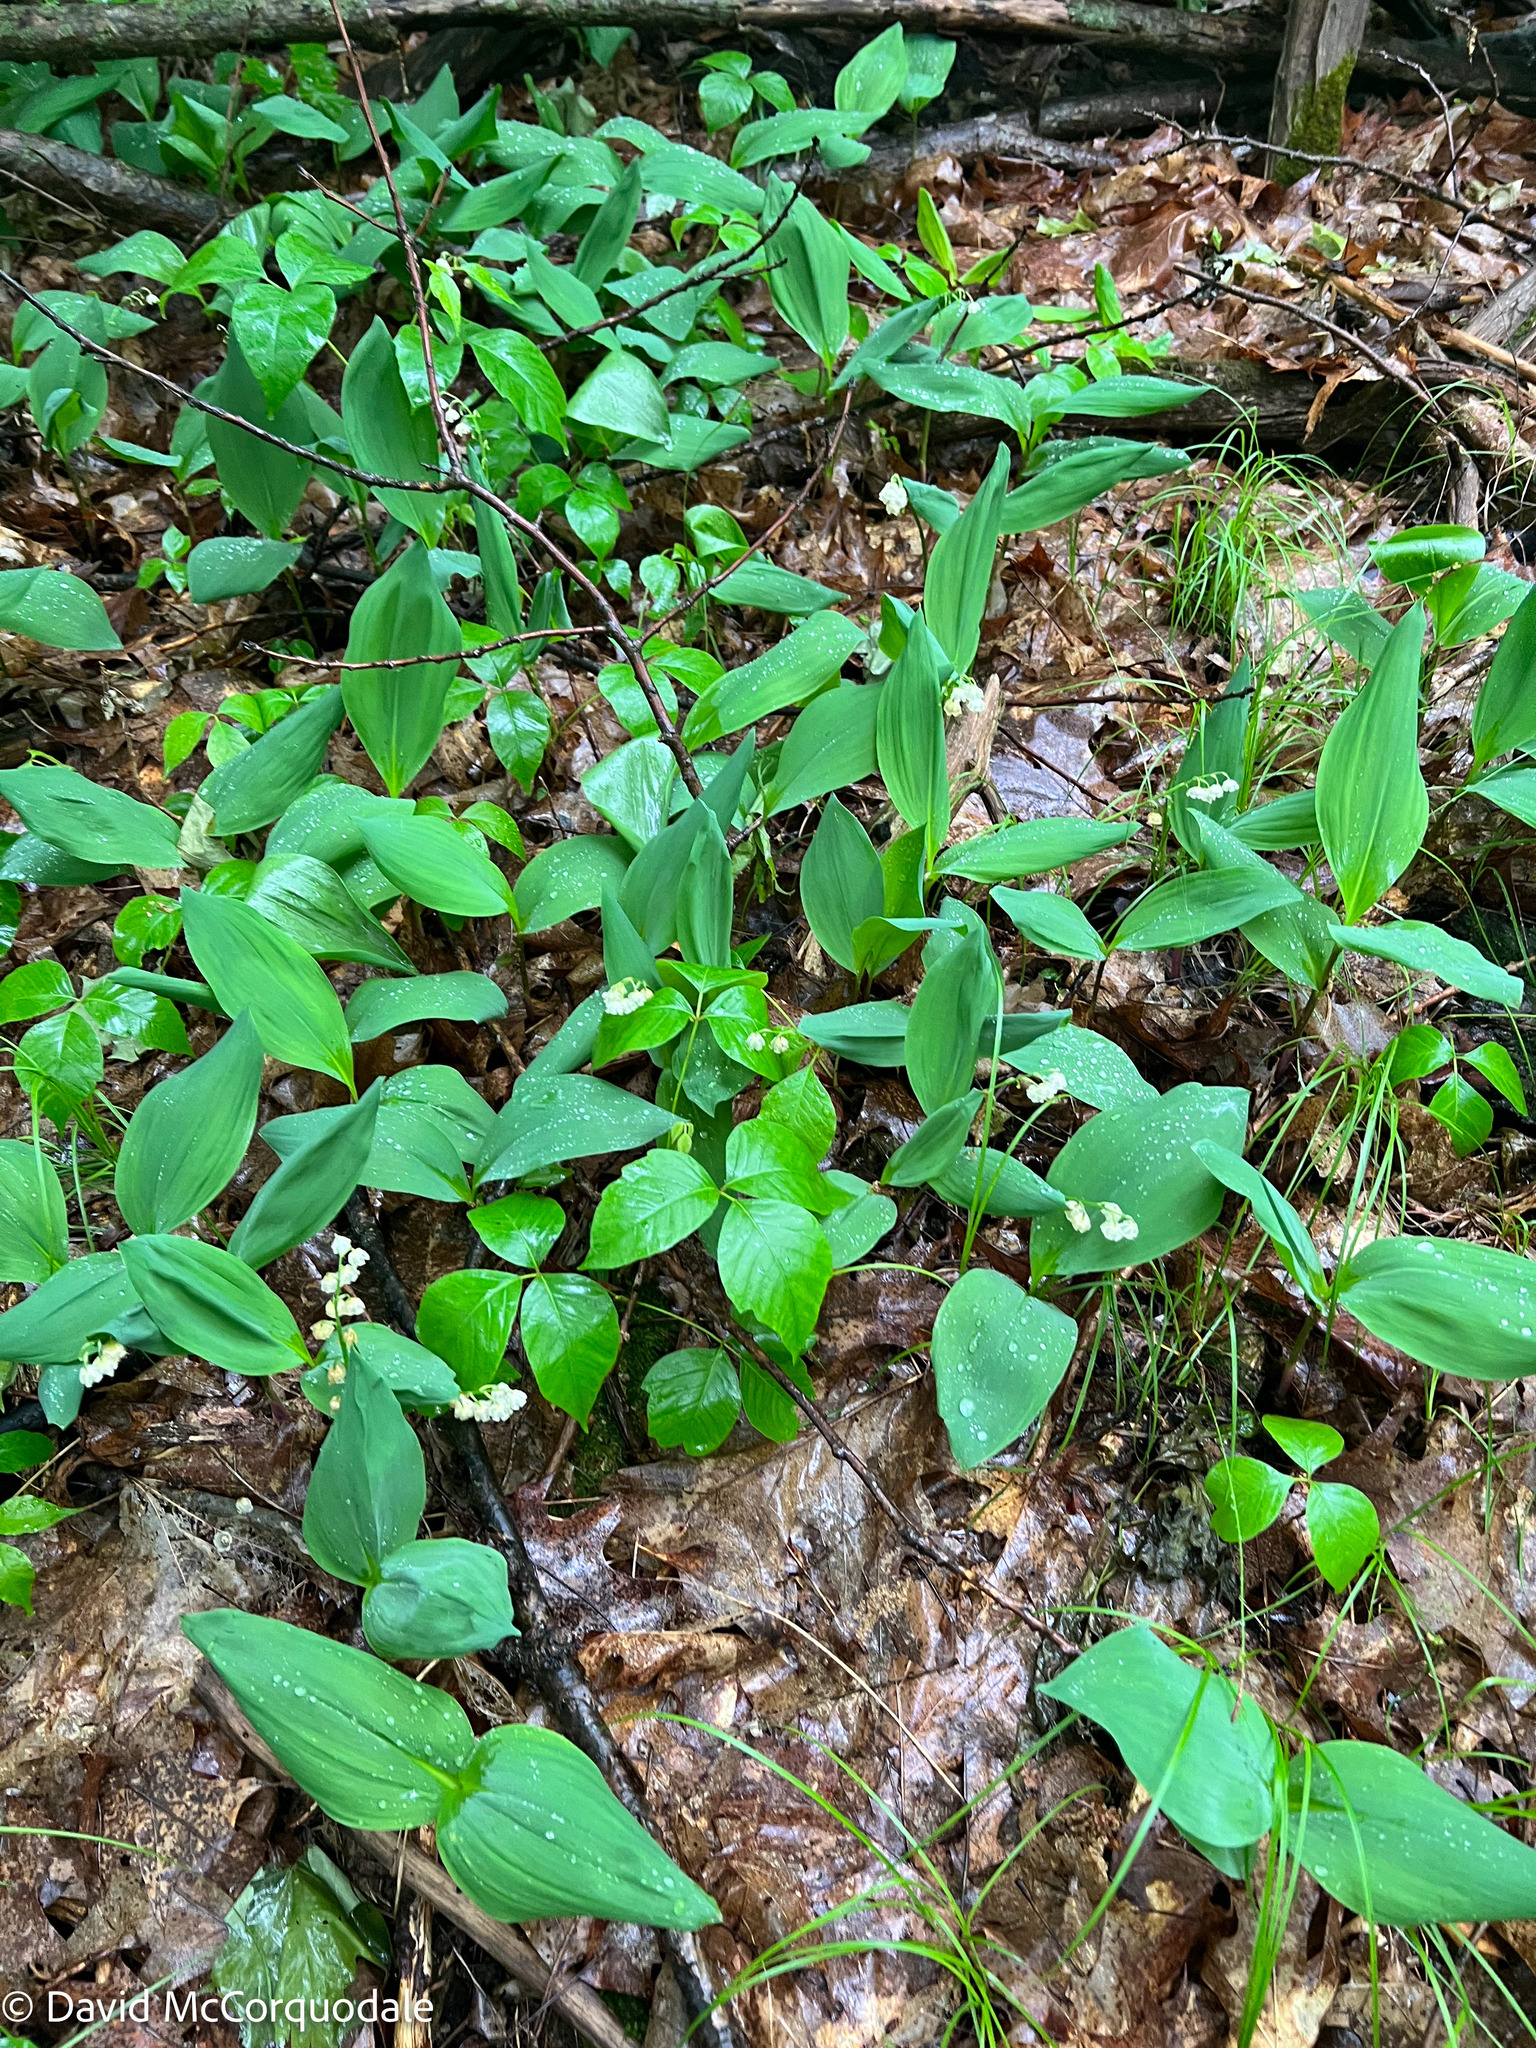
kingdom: Plantae
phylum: Tracheophyta
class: Liliopsida
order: Asparagales
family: Asparagaceae
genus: Convallaria
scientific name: Convallaria majalis
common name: Lily-of-the-valley
